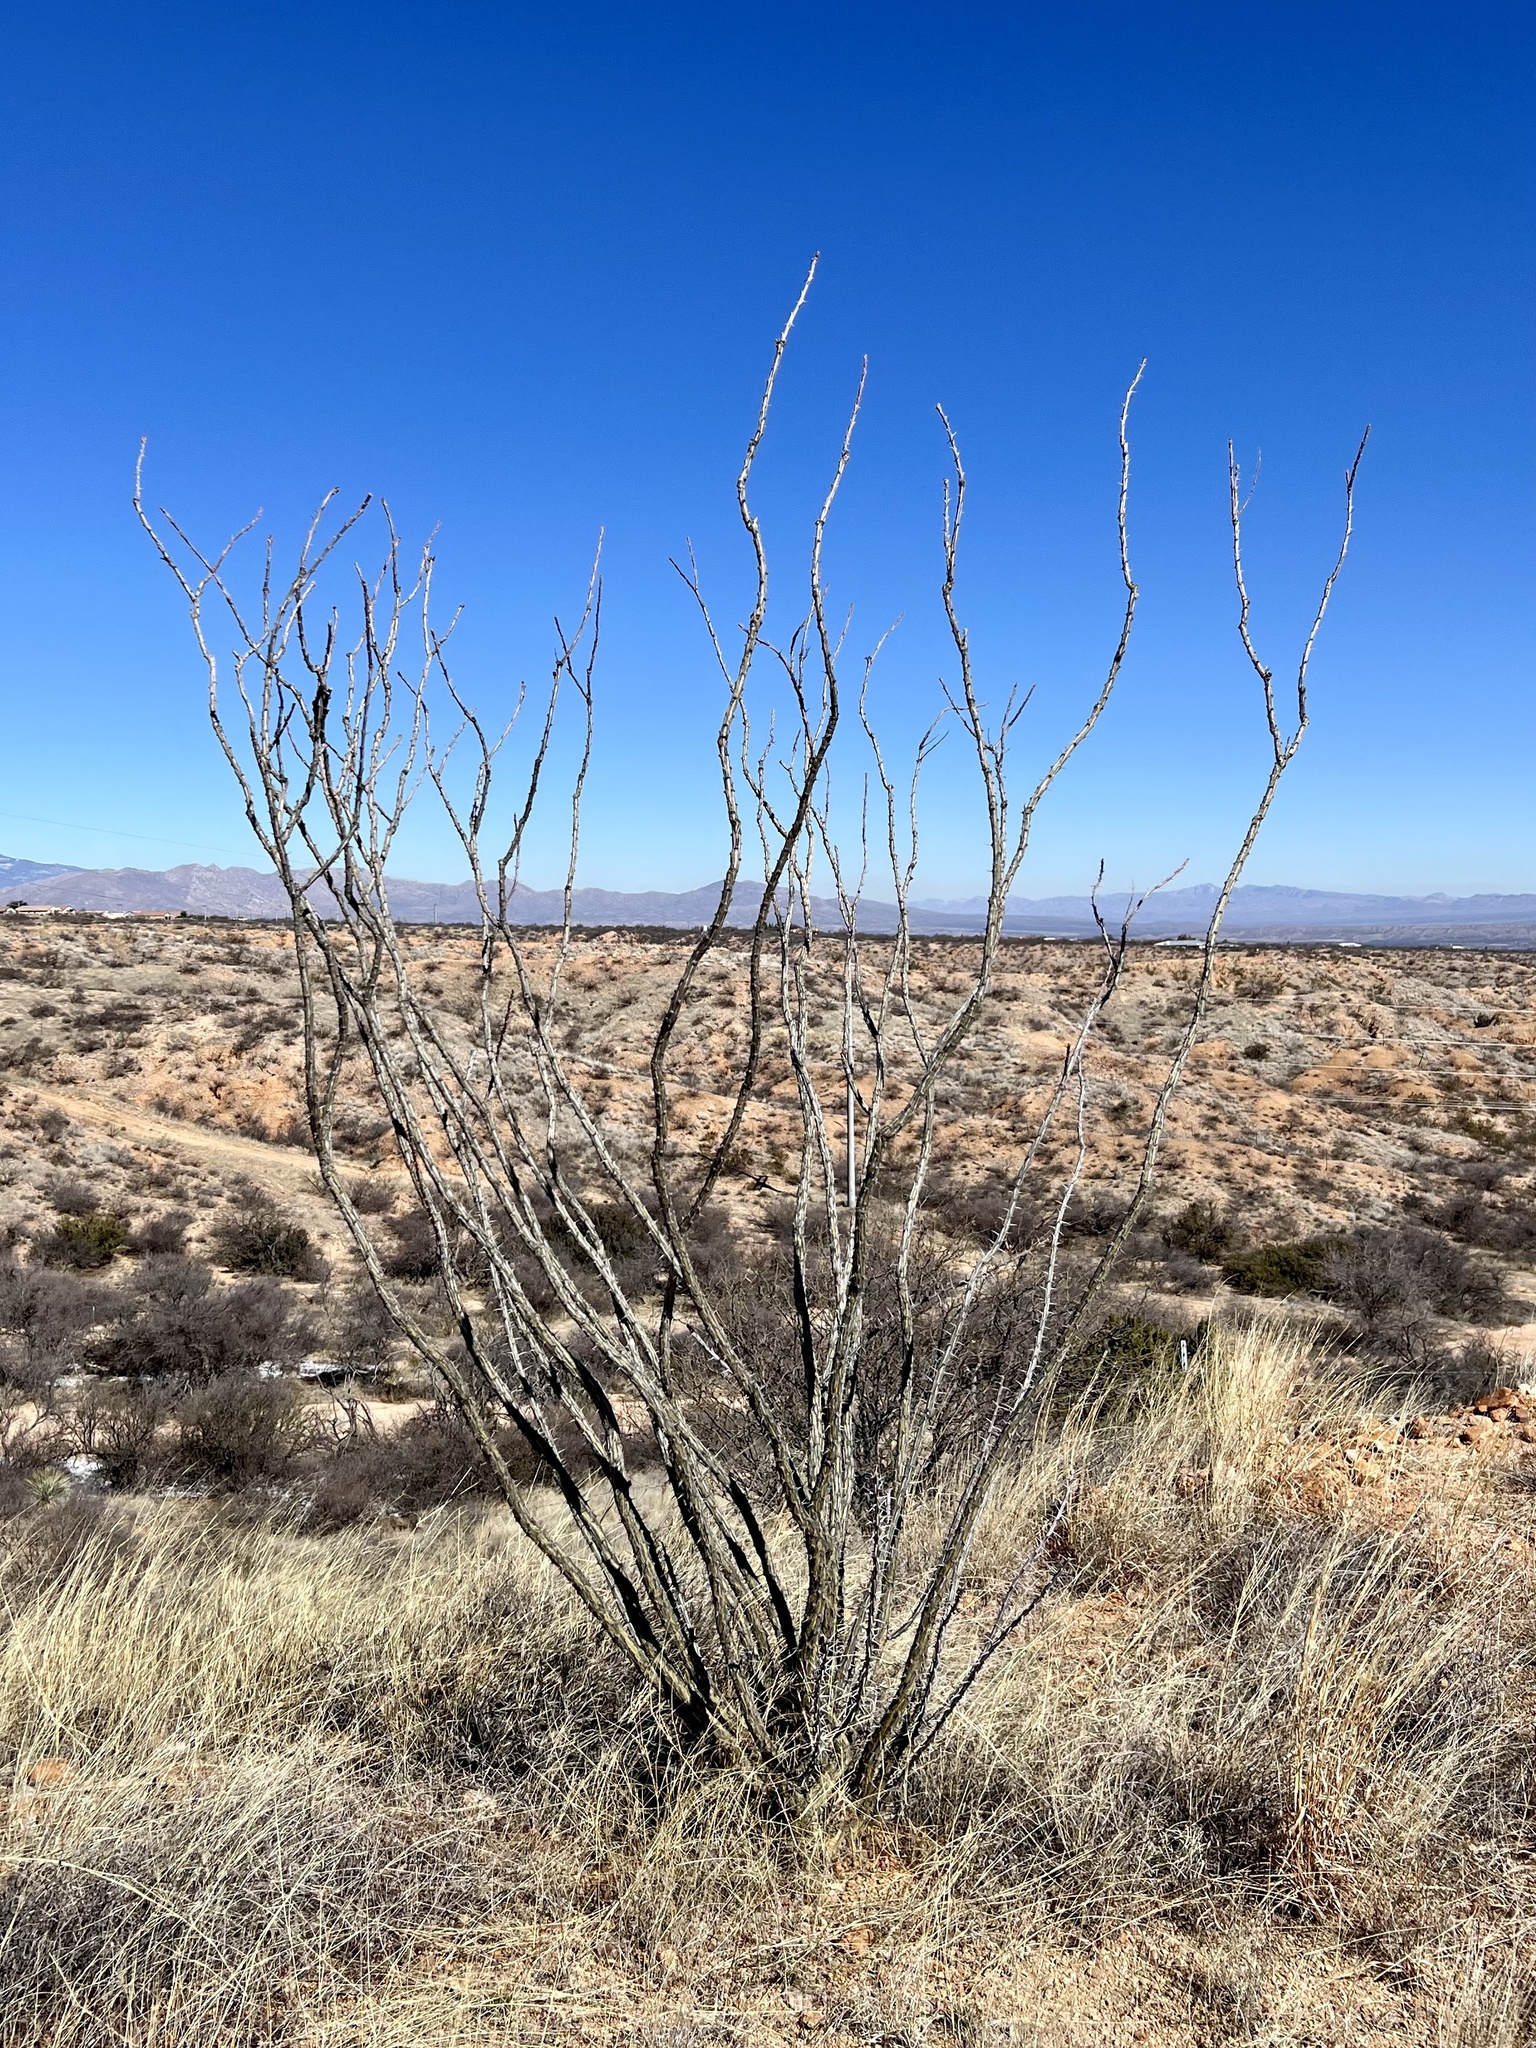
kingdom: Plantae
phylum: Tracheophyta
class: Magnoliopsida
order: Ericales
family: Fouquieriaceae
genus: Fouquieria
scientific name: Fouquieria splendens
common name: Vine-cactus
